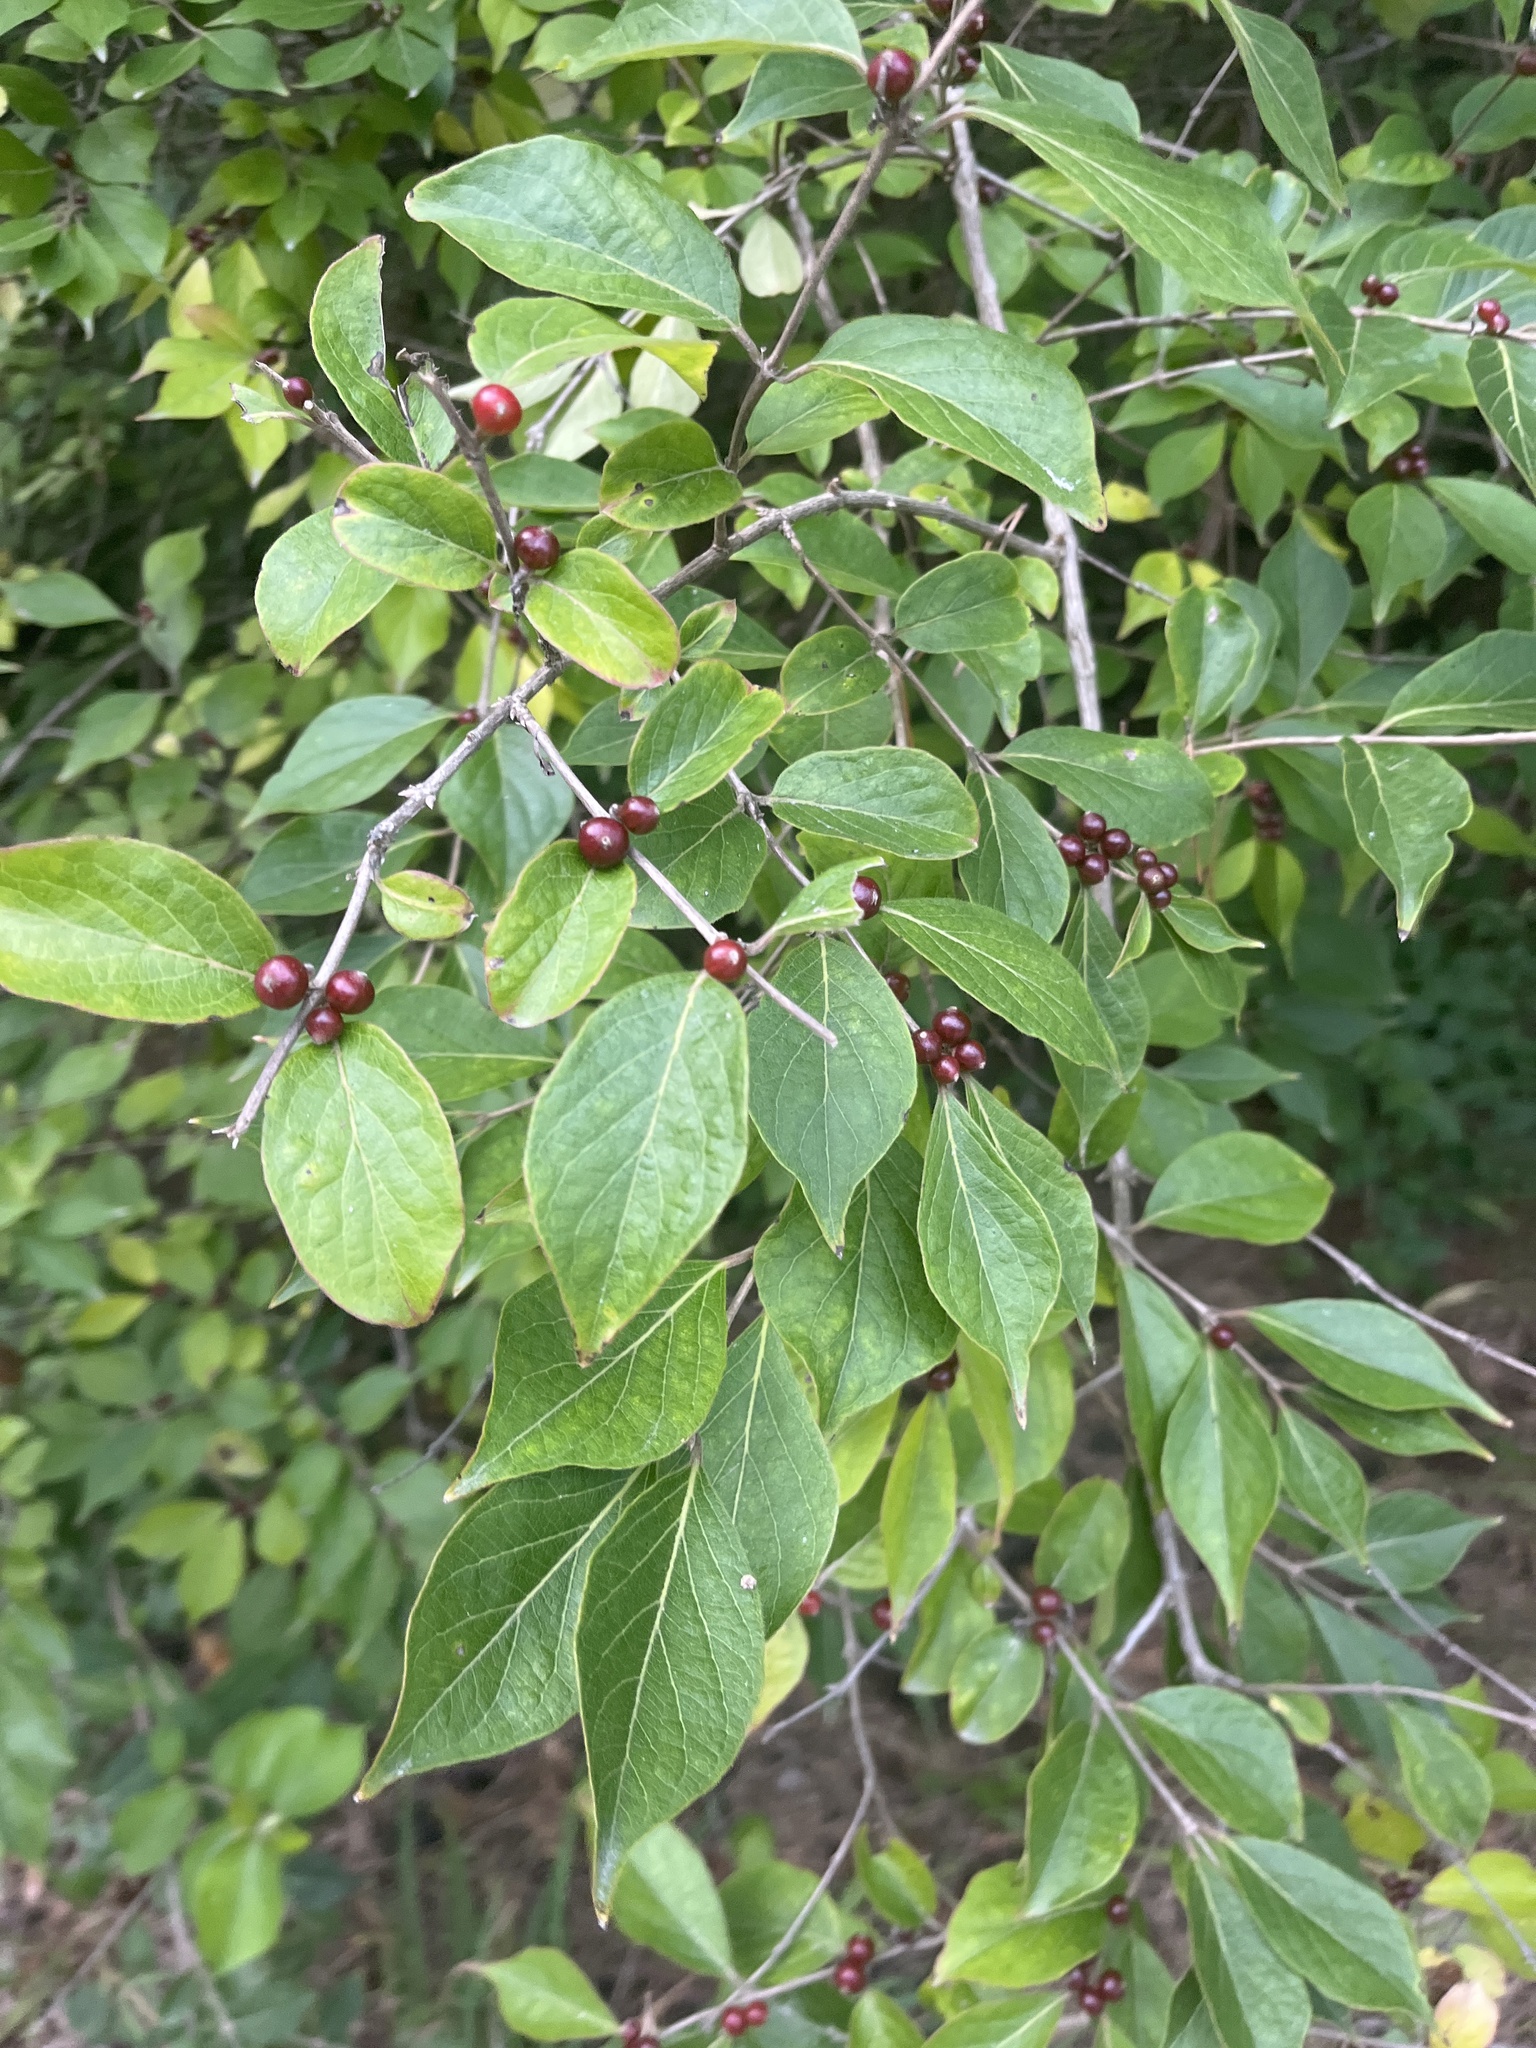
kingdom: Plantae
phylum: Tracheophyta
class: Magnoliopsida
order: Dipsacales
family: Caprifoliaceae
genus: Lonicera
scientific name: Lonicera maackii
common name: Amur honeysuckle
